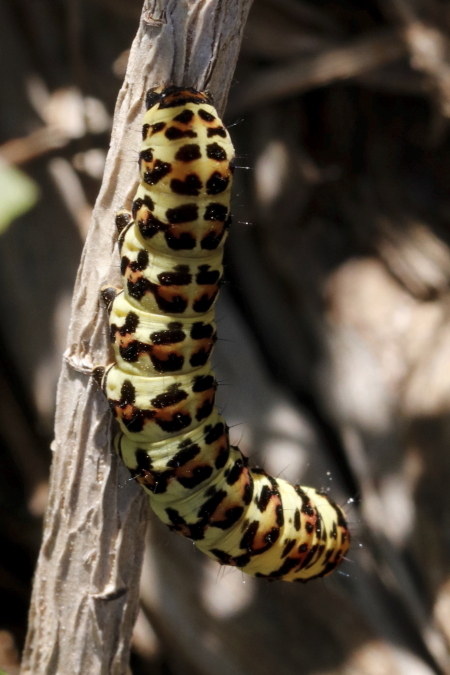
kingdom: Animalia
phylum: Arthropoda
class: Insecta
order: Lepidoptera
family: Noctuidae
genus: Diaphone
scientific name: Diaphone eumela
